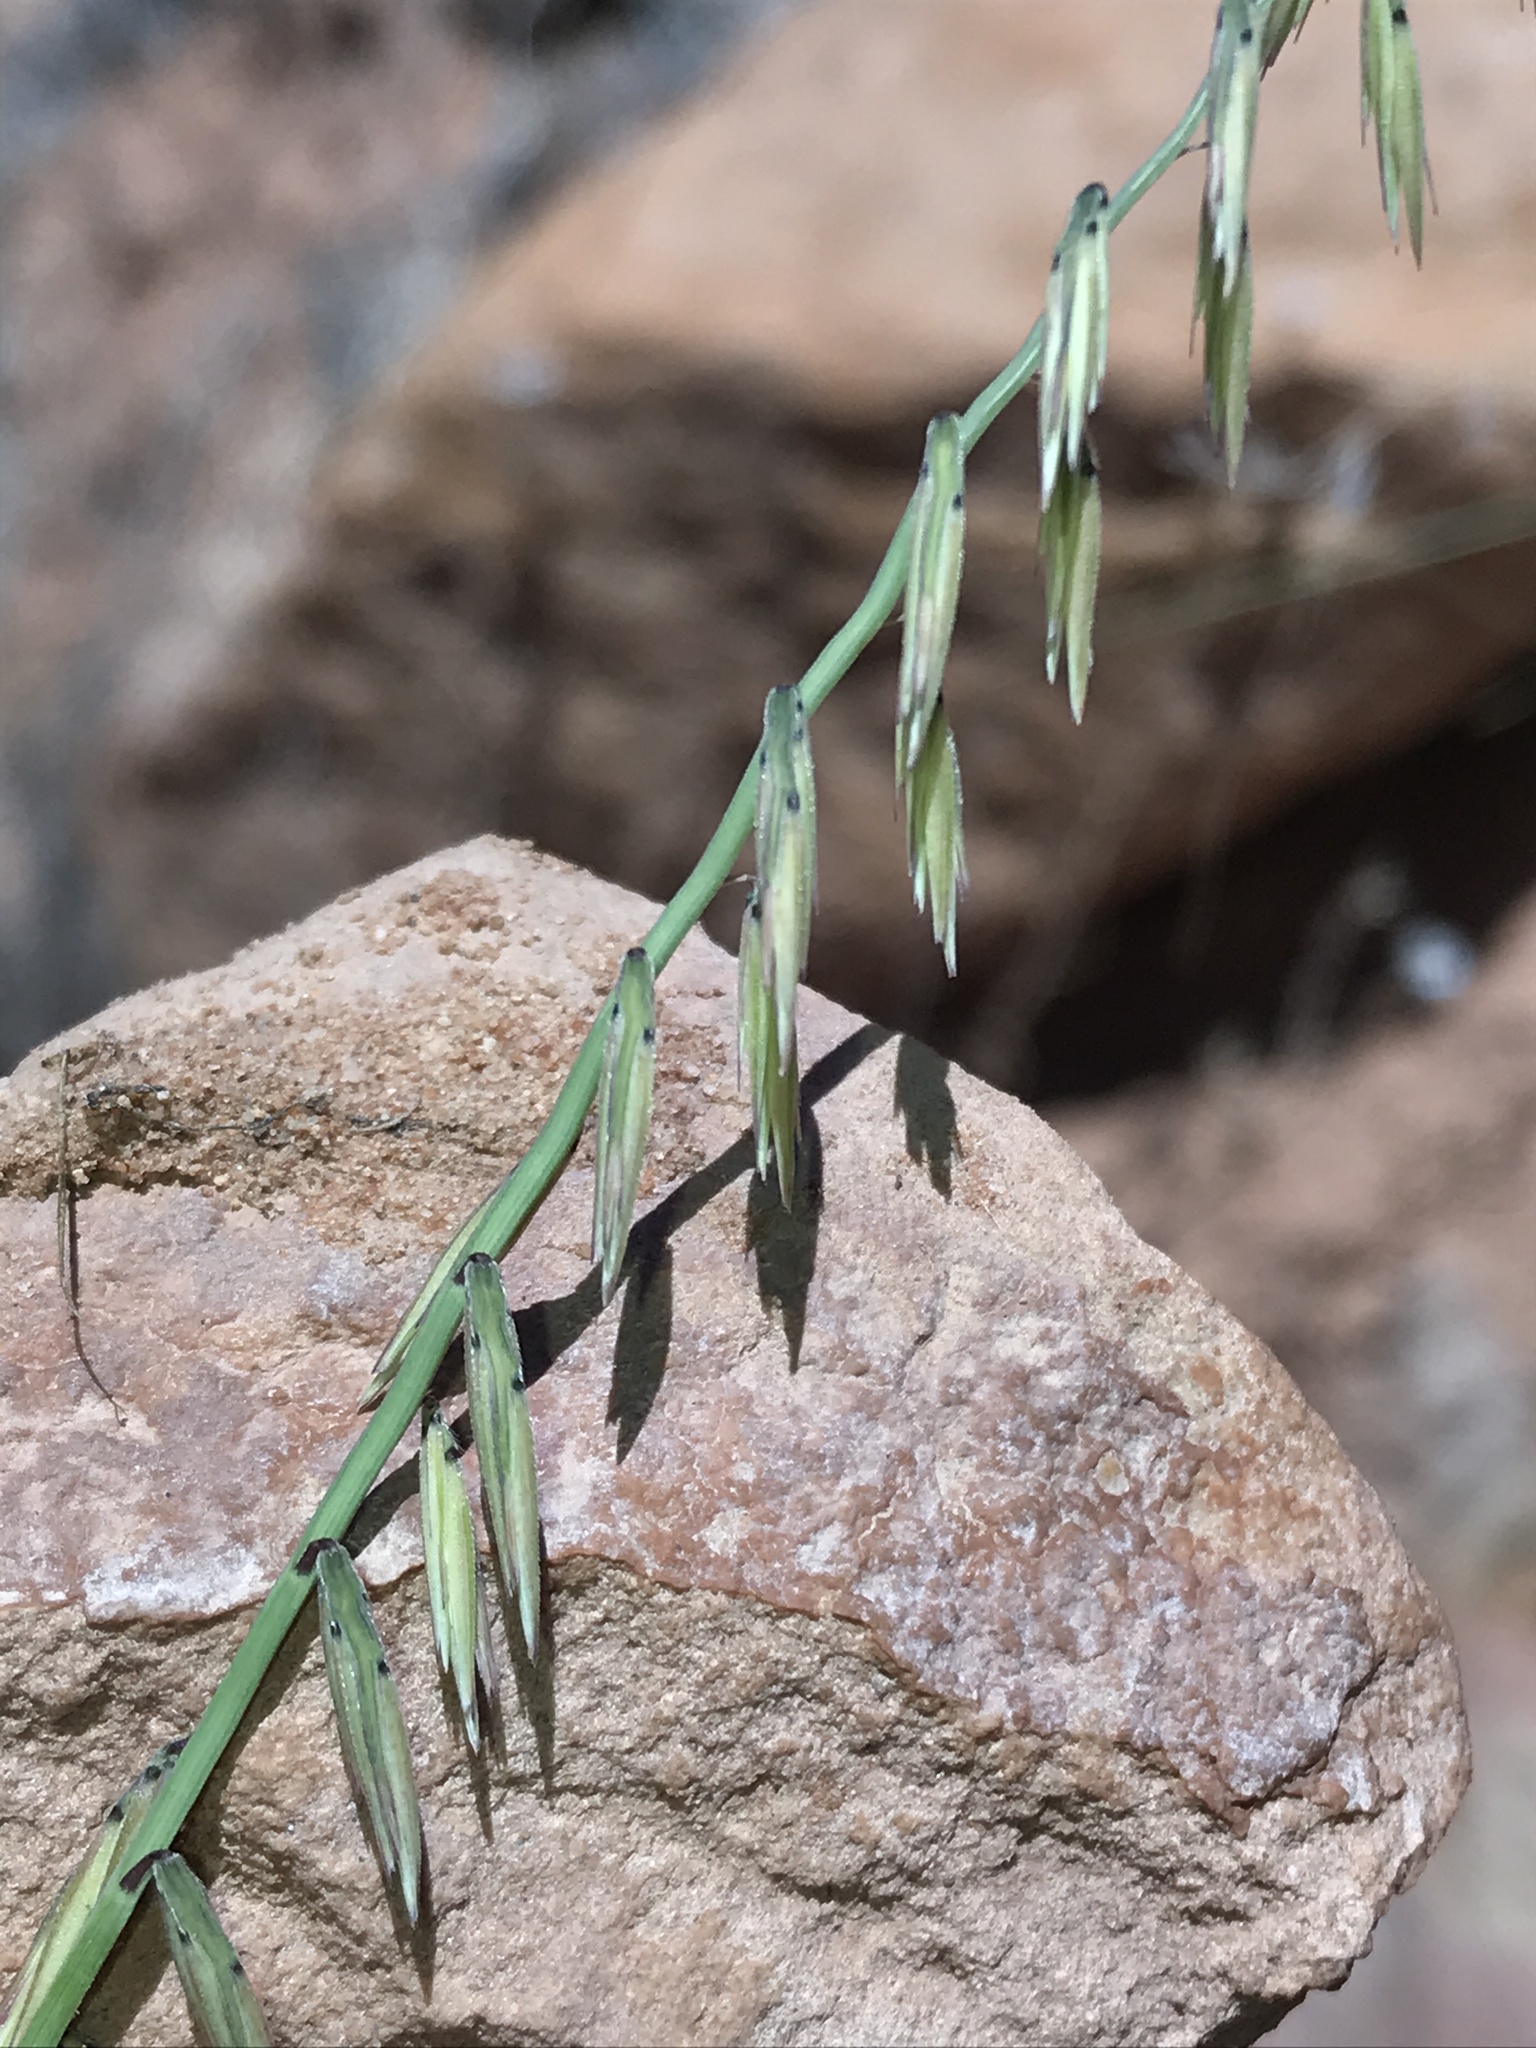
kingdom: Plantae
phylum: Tracheophyta
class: Liliopsida
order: Poales
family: Poaceae
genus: Bouteloua
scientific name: Bouteloua curtipendula
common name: Side-oats grama
